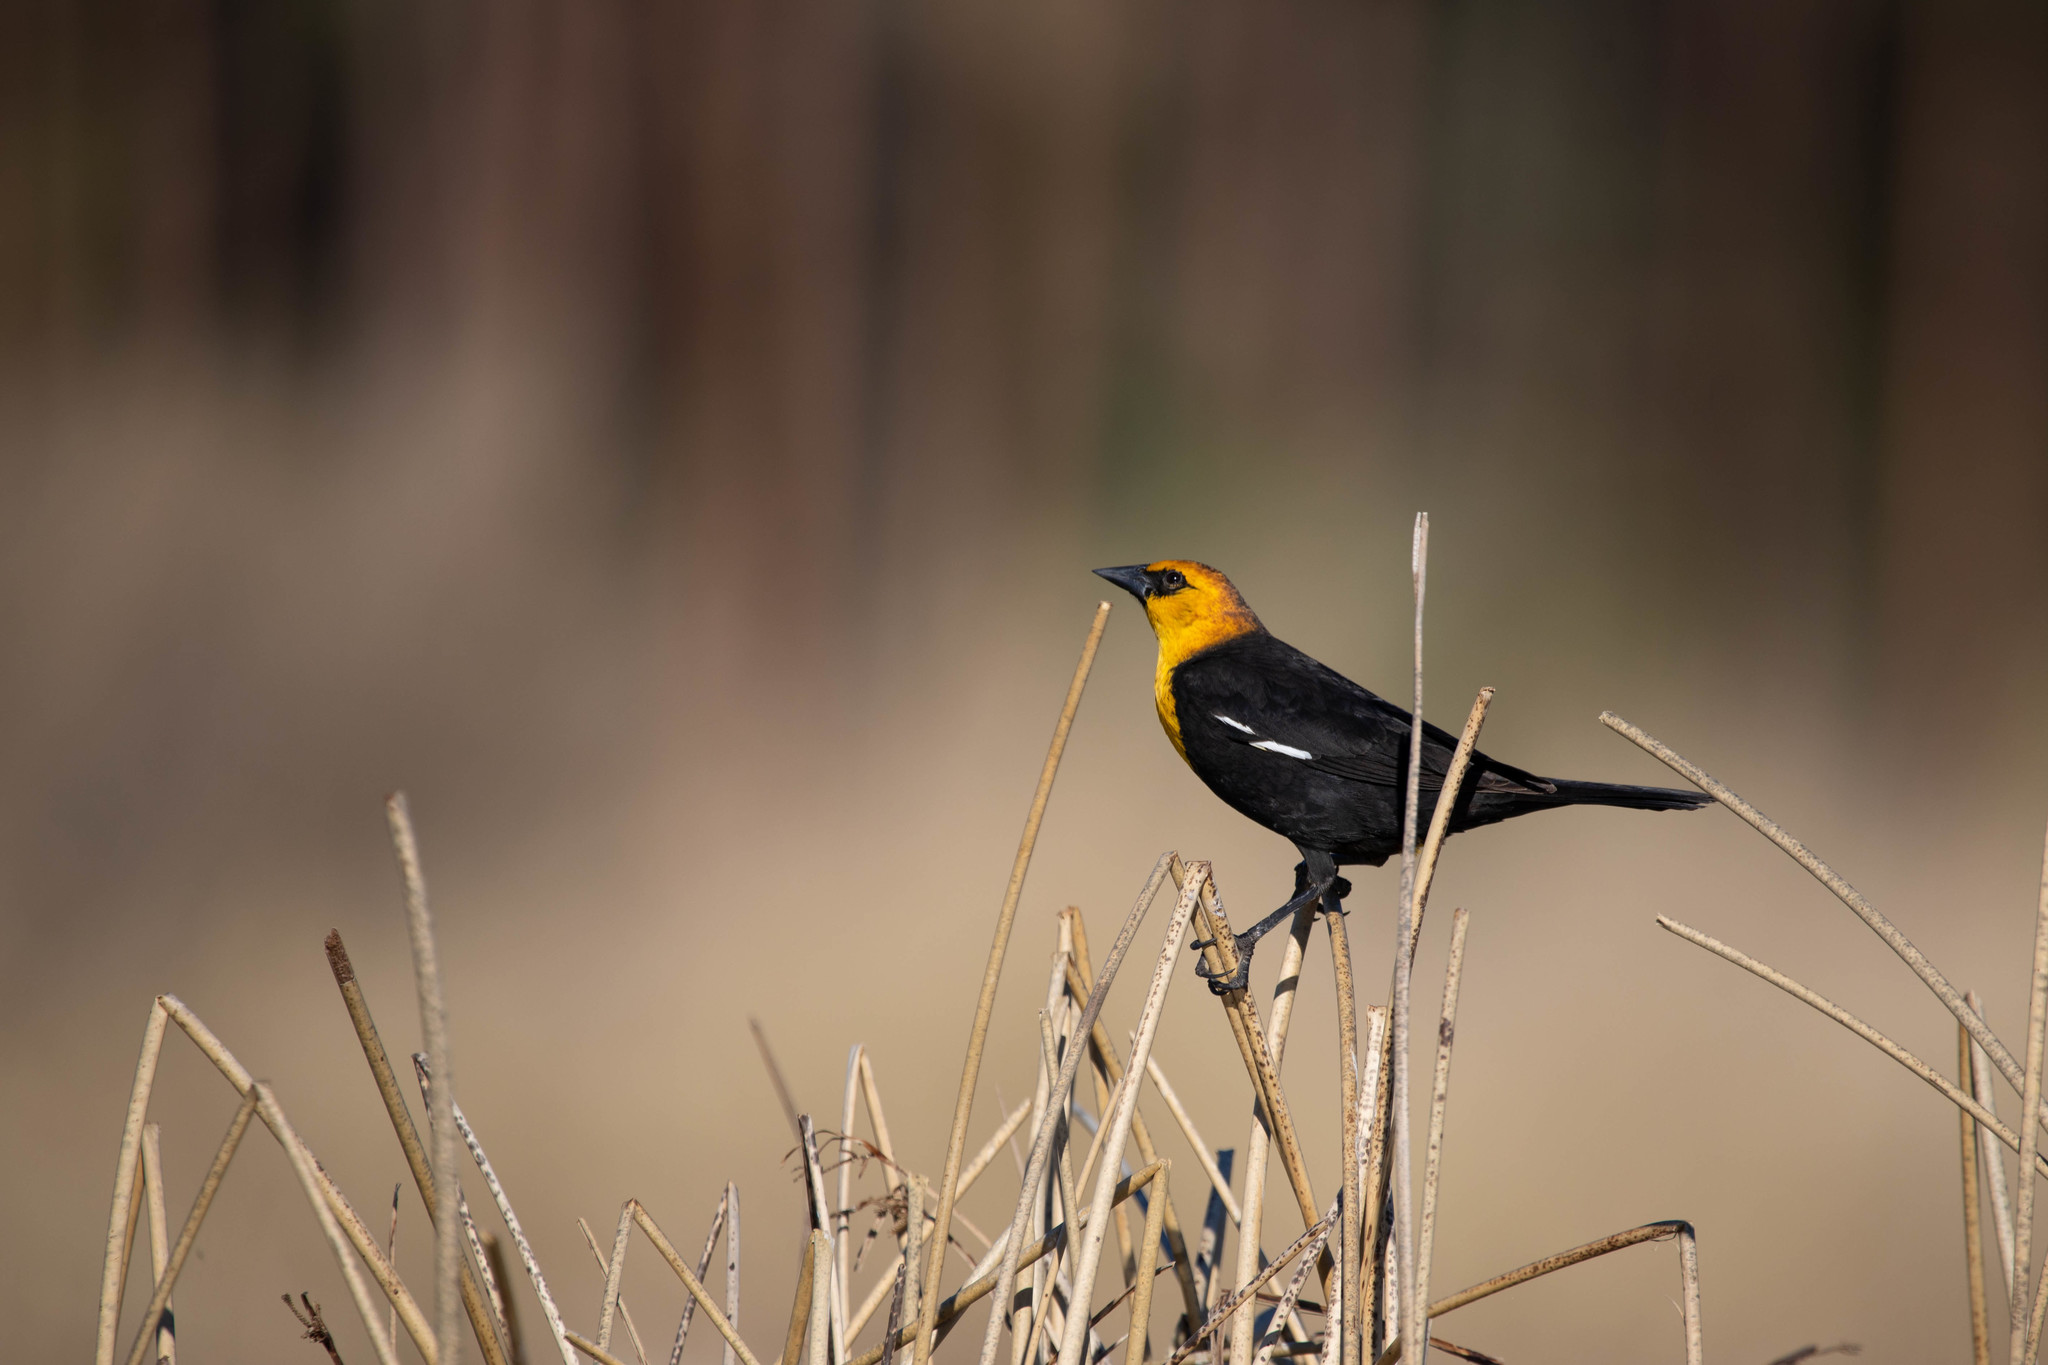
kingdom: Animalia
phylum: Chordata
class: Aves
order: Passeriformes
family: Icteridae
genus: Xanthocephalus
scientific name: Xanthocephalus xanthocephalus
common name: Yellow-headed blackbird
